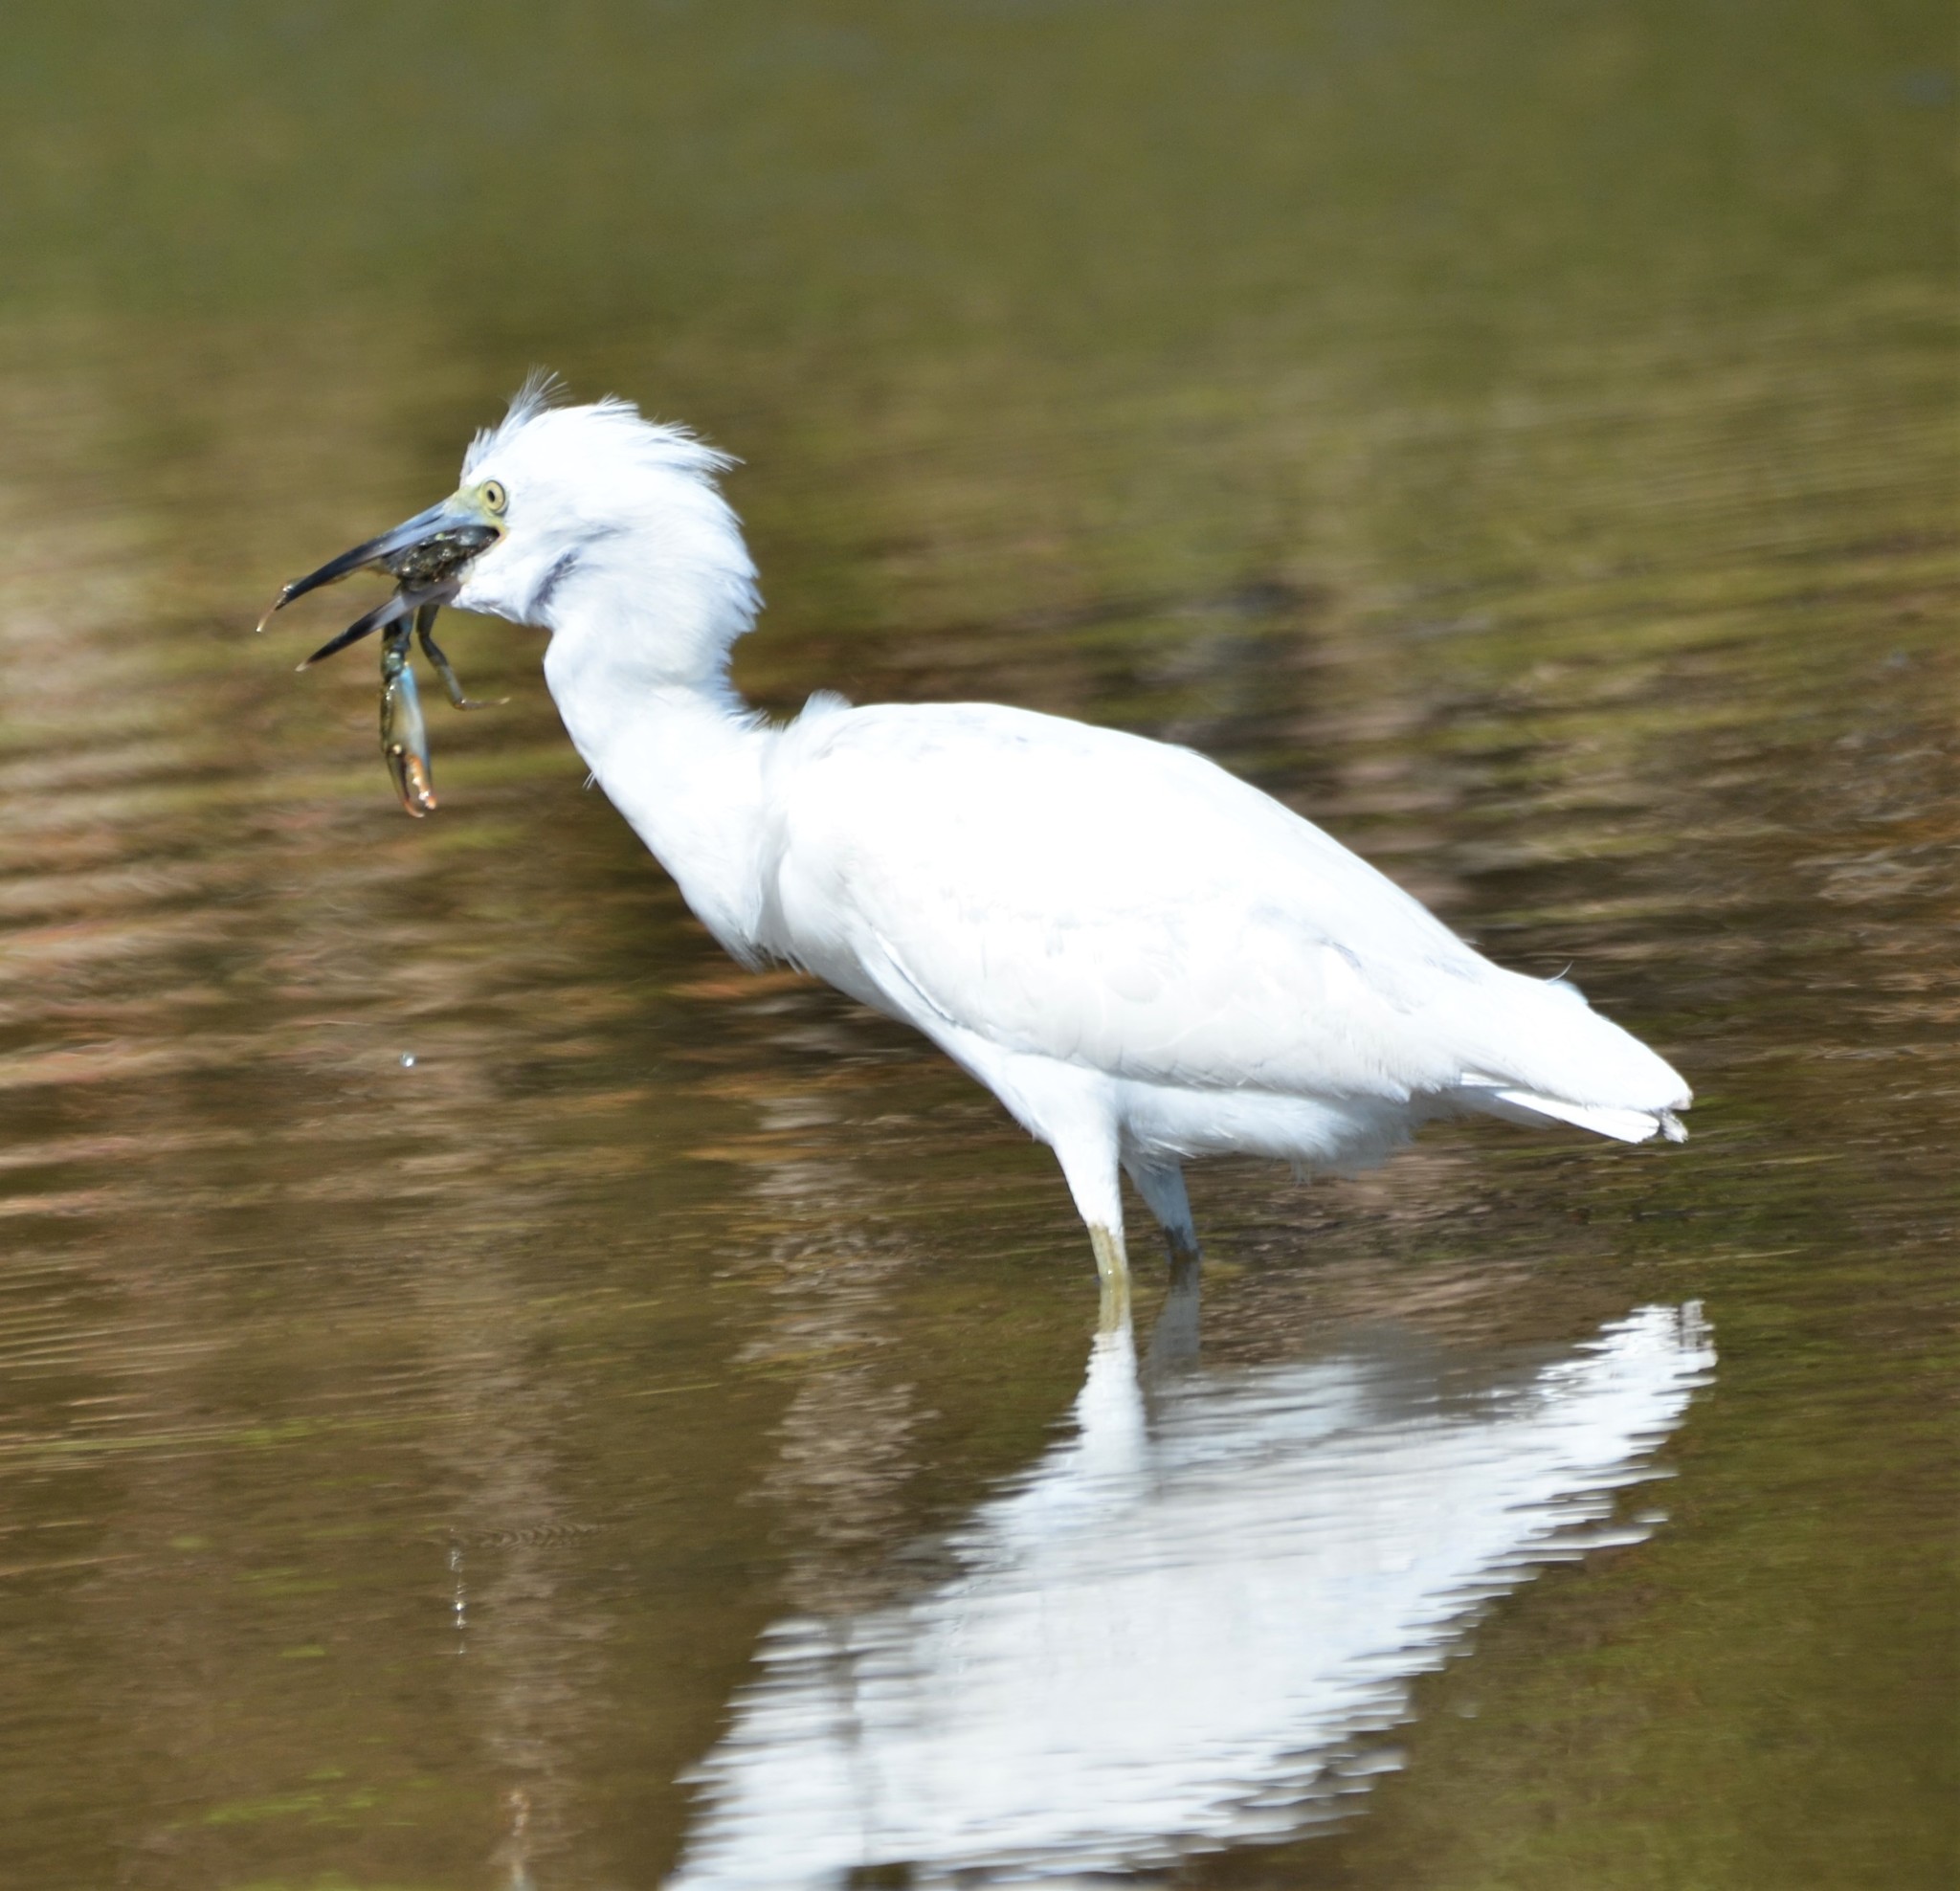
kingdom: Animalia
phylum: Chordata
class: Aves
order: Pelecaniformes
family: Ardeidae
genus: Egretta
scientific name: Egretta caerulea
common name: Little blue heron
